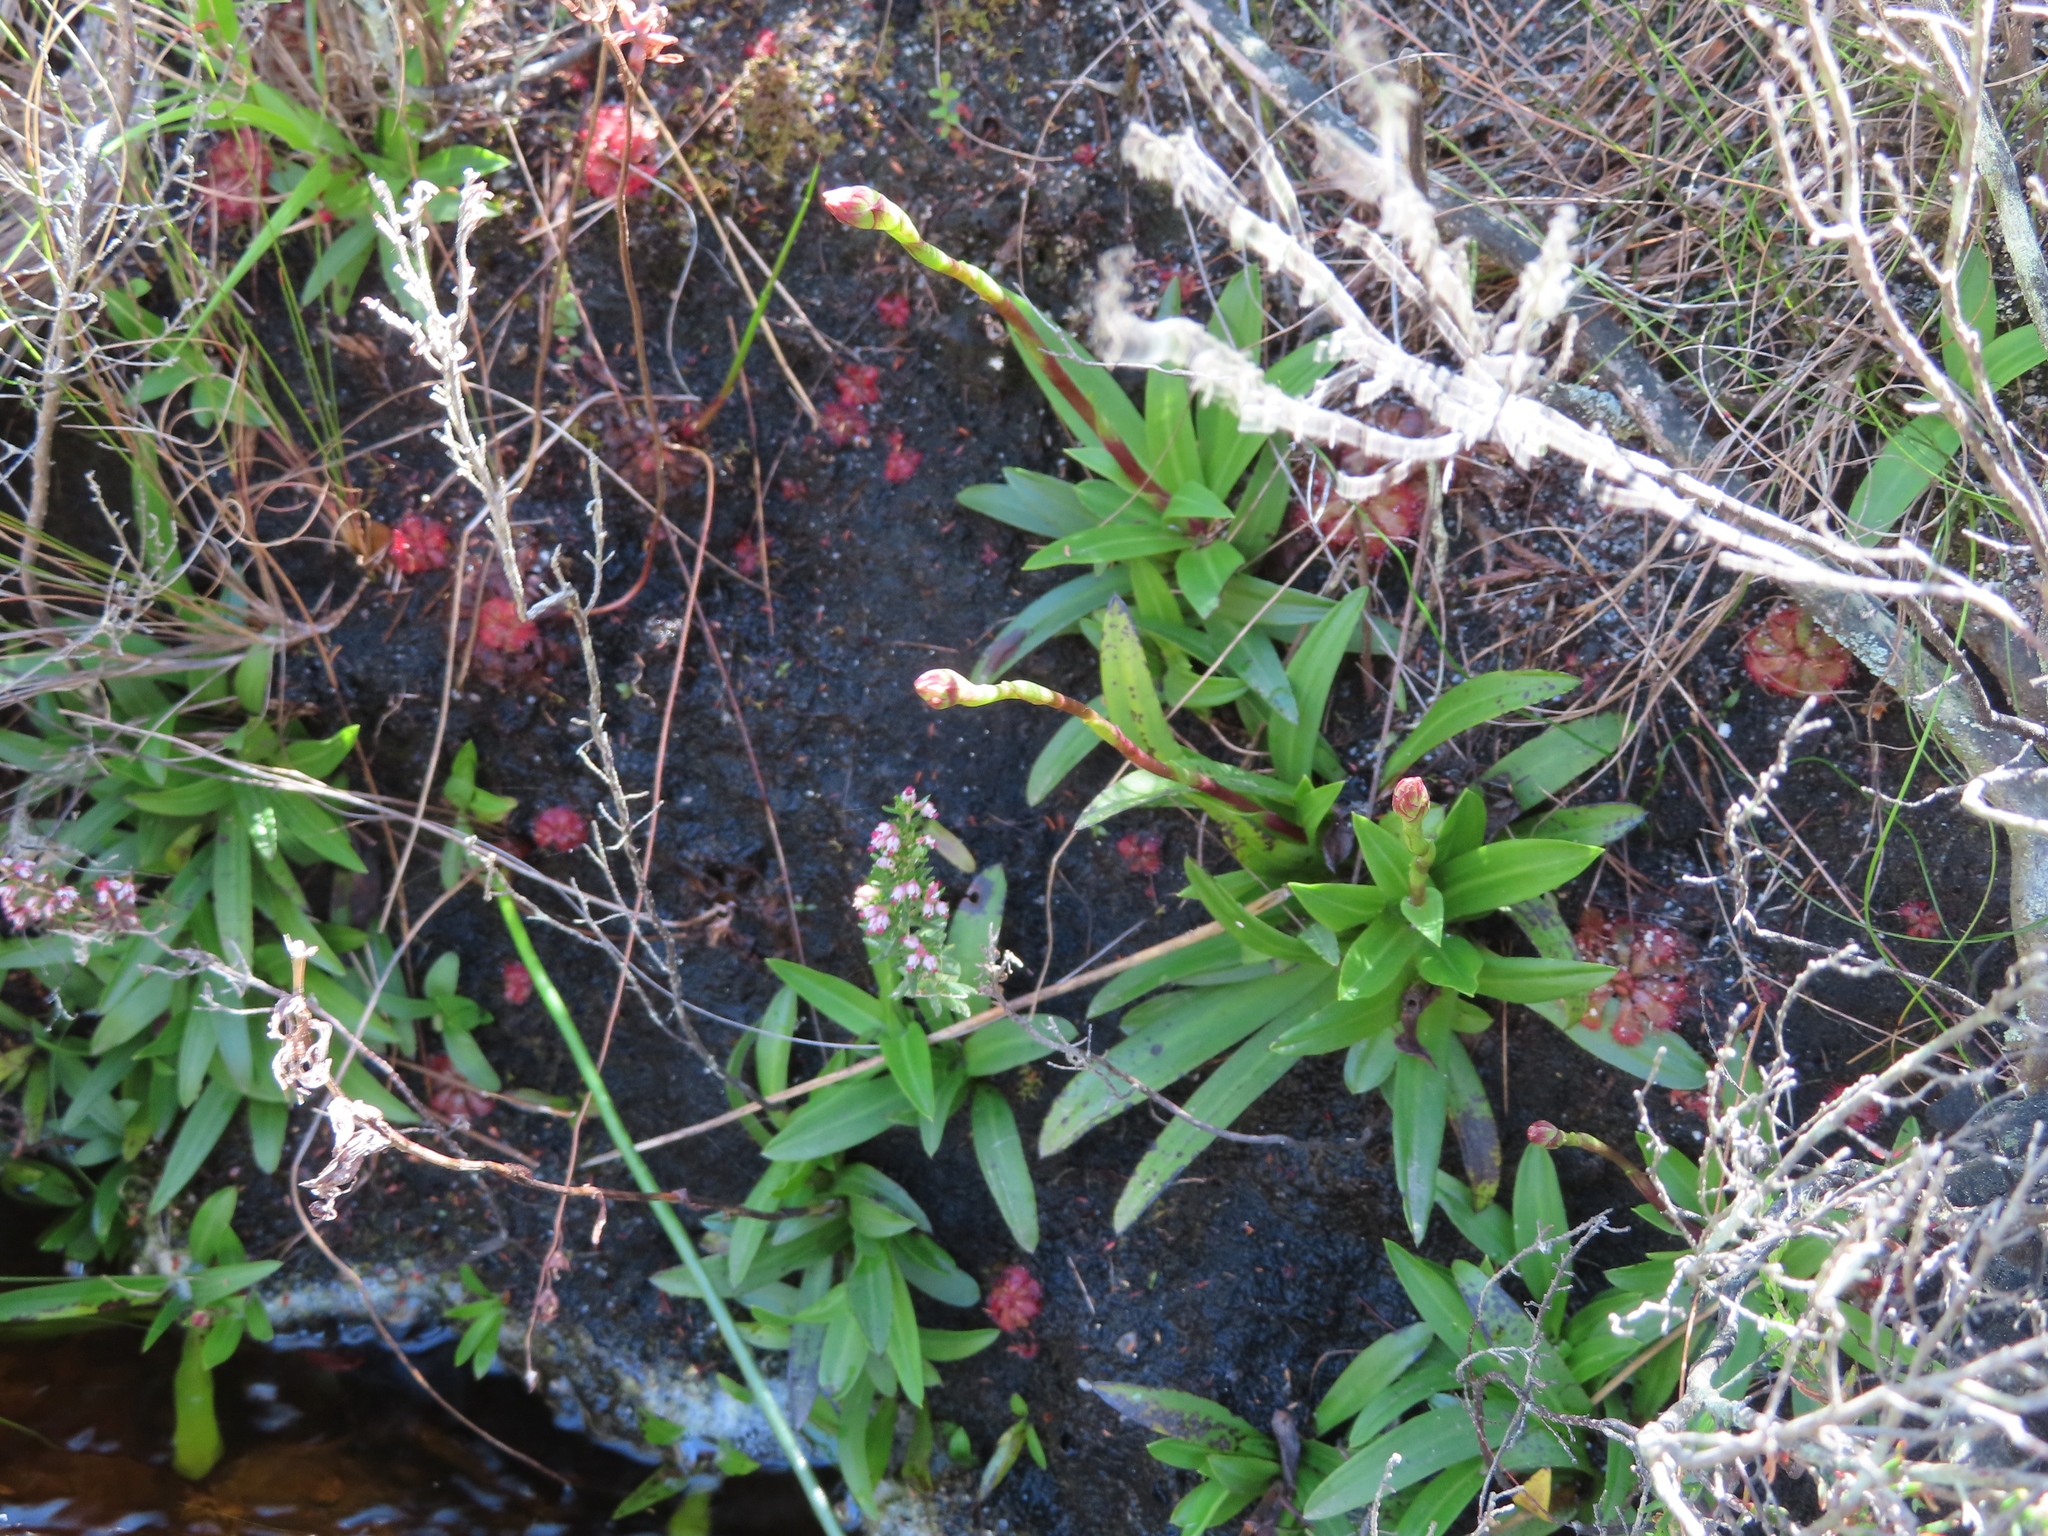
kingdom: Plantae
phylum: Tracheophyta
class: Liliopsida
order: Asparagales
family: Orchidaceae
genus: Disa
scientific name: Disa tripetaloides
